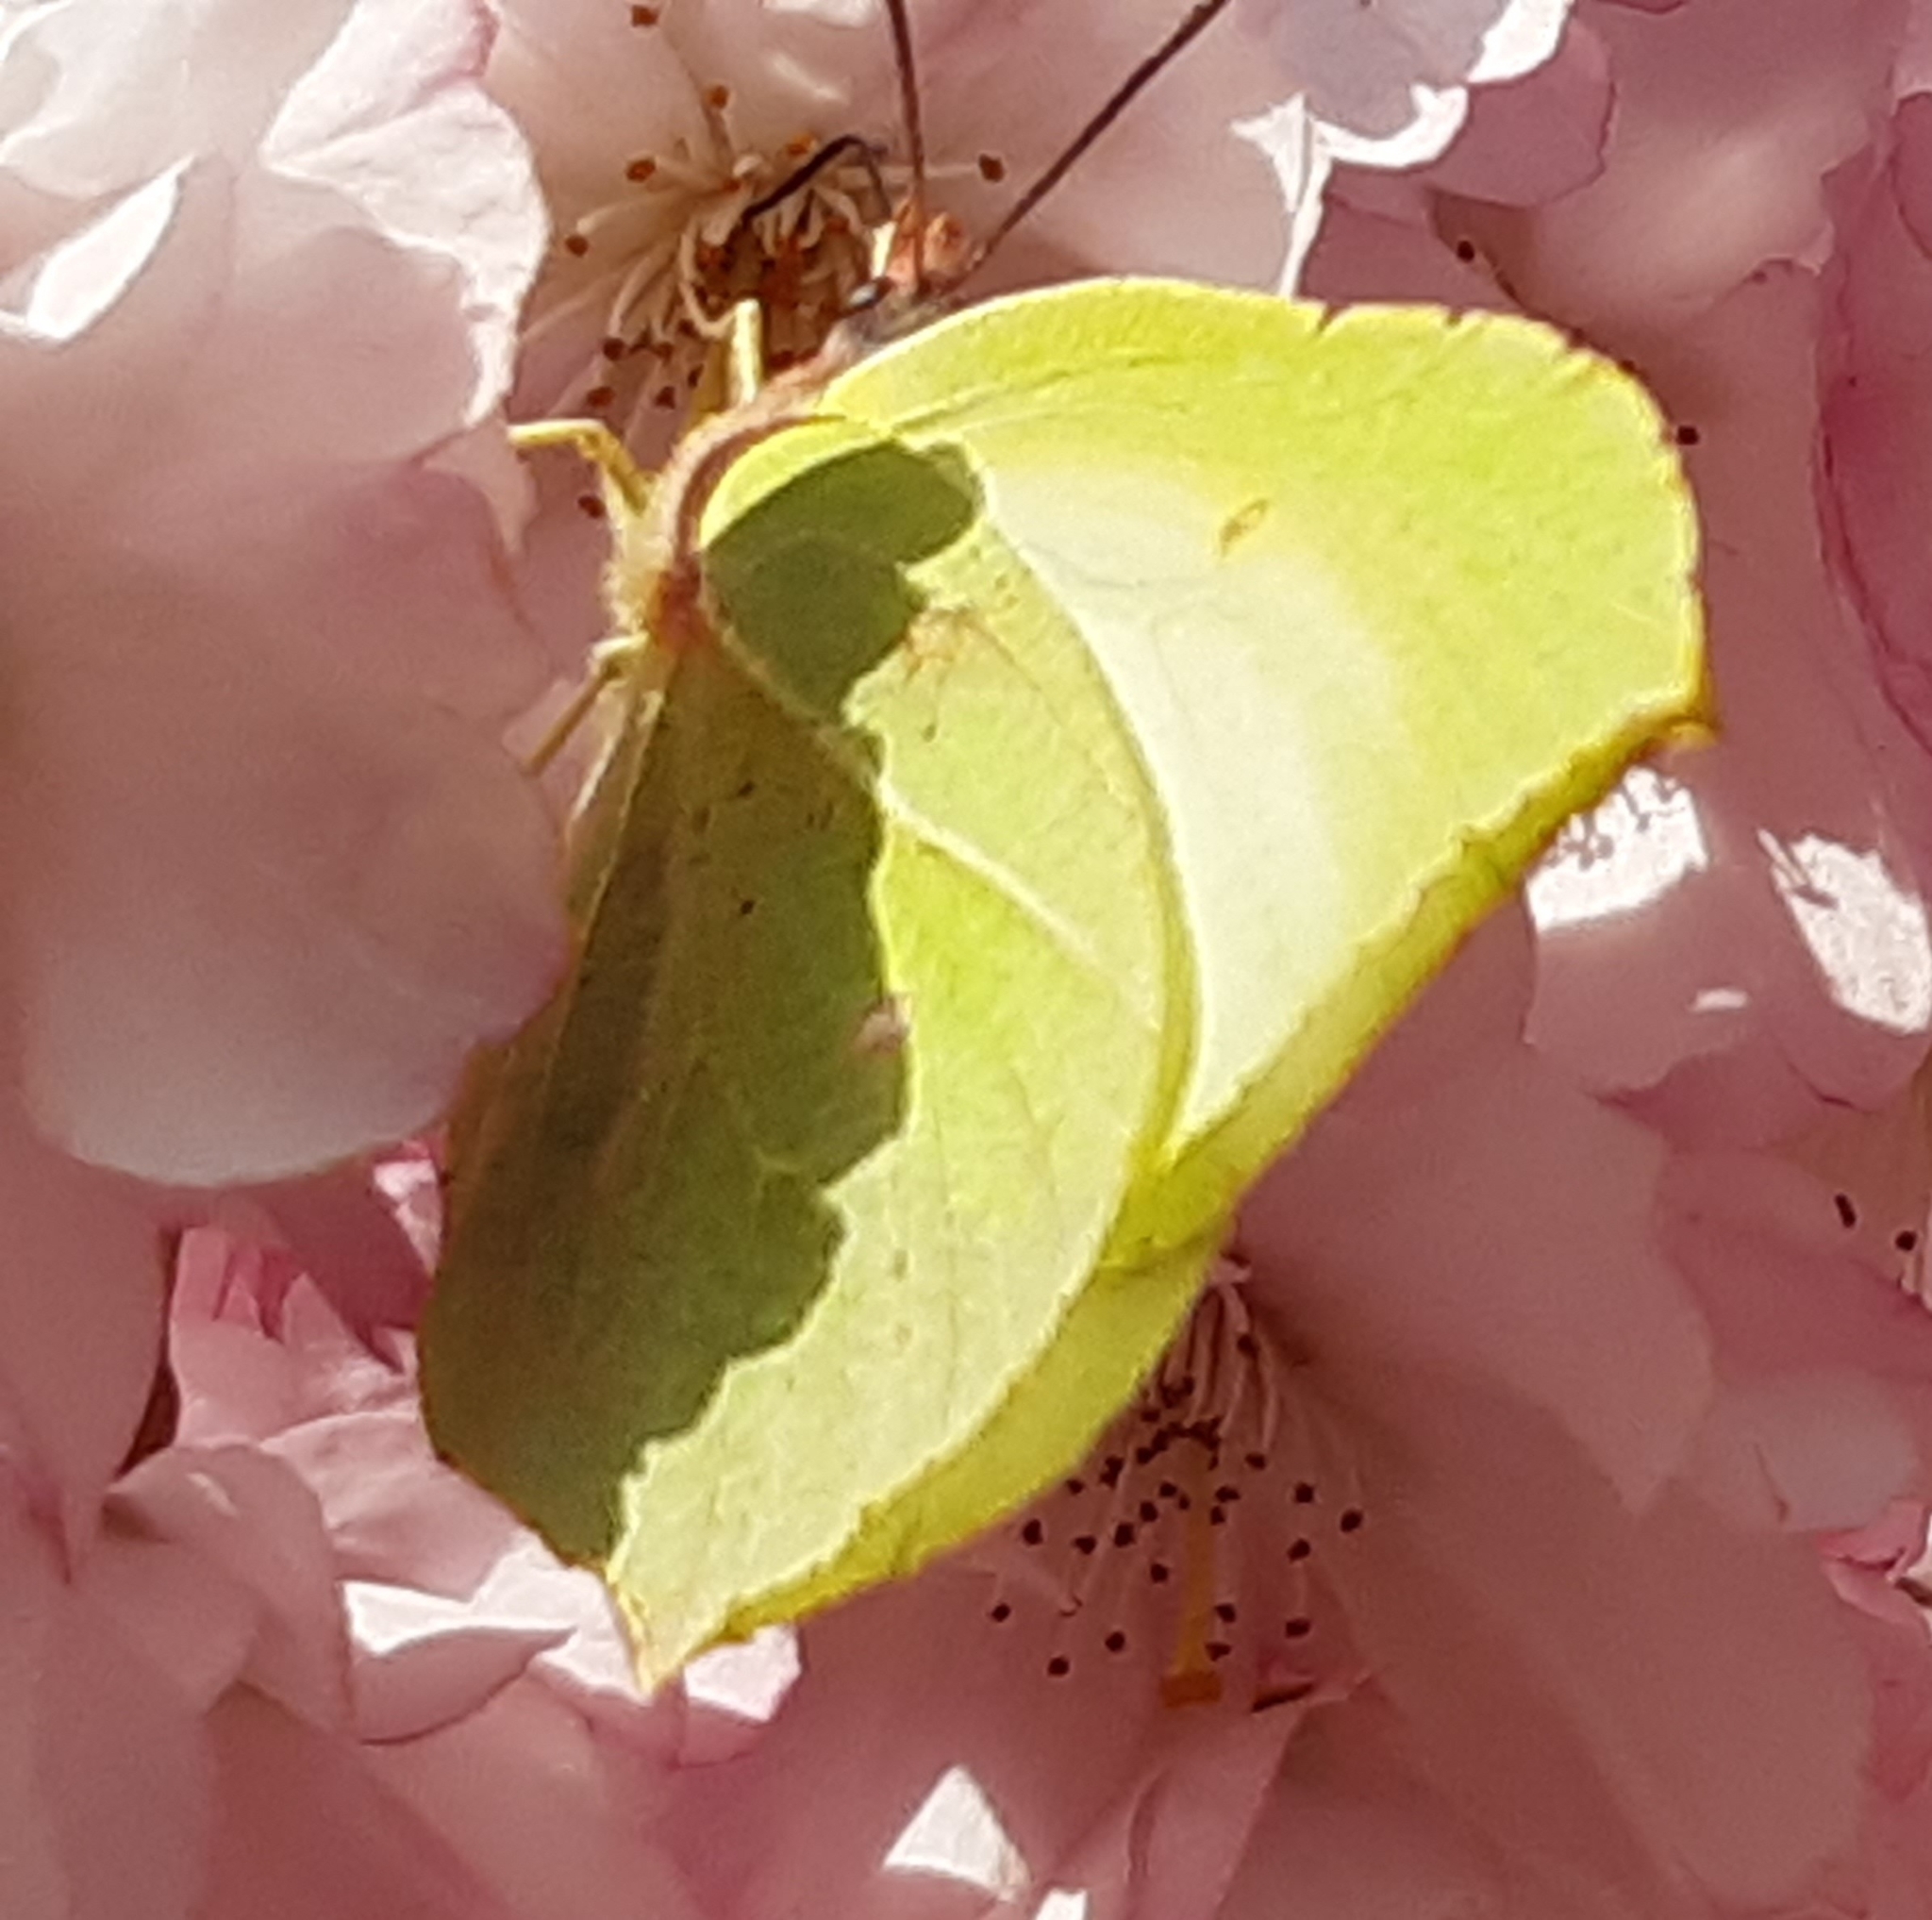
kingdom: Animalia
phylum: Arthropoda
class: Insecta
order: Lepidoptera
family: Pieridae
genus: Gonepteryx
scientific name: Gonepteryx rhamni
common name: Brimstone
